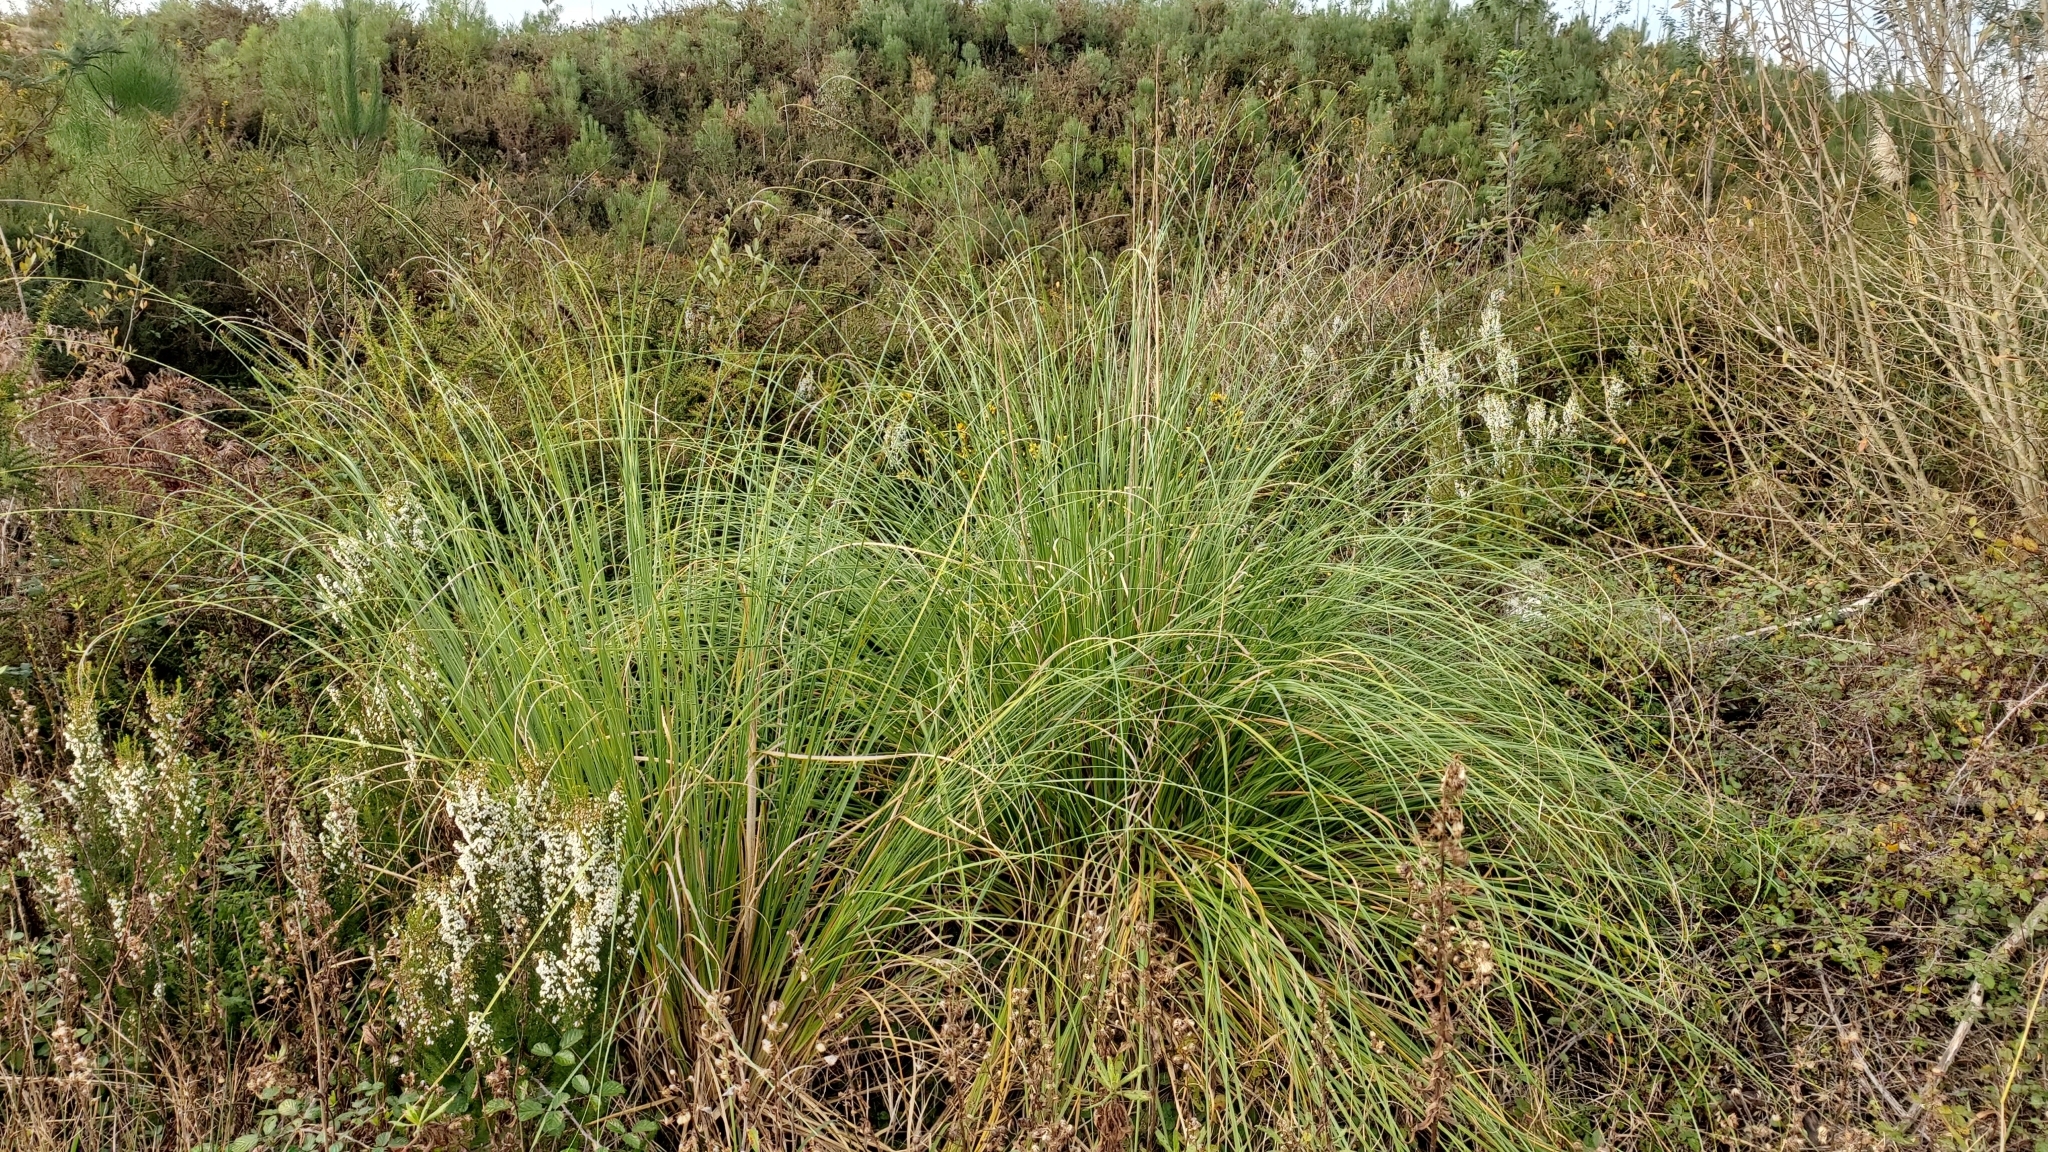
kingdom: Plantae
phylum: Tracheophyta
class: Liliopsida
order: Poales
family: Poaceae
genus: Cortaderia
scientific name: Cortaderia selloana
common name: Uruguayan pampas grass
